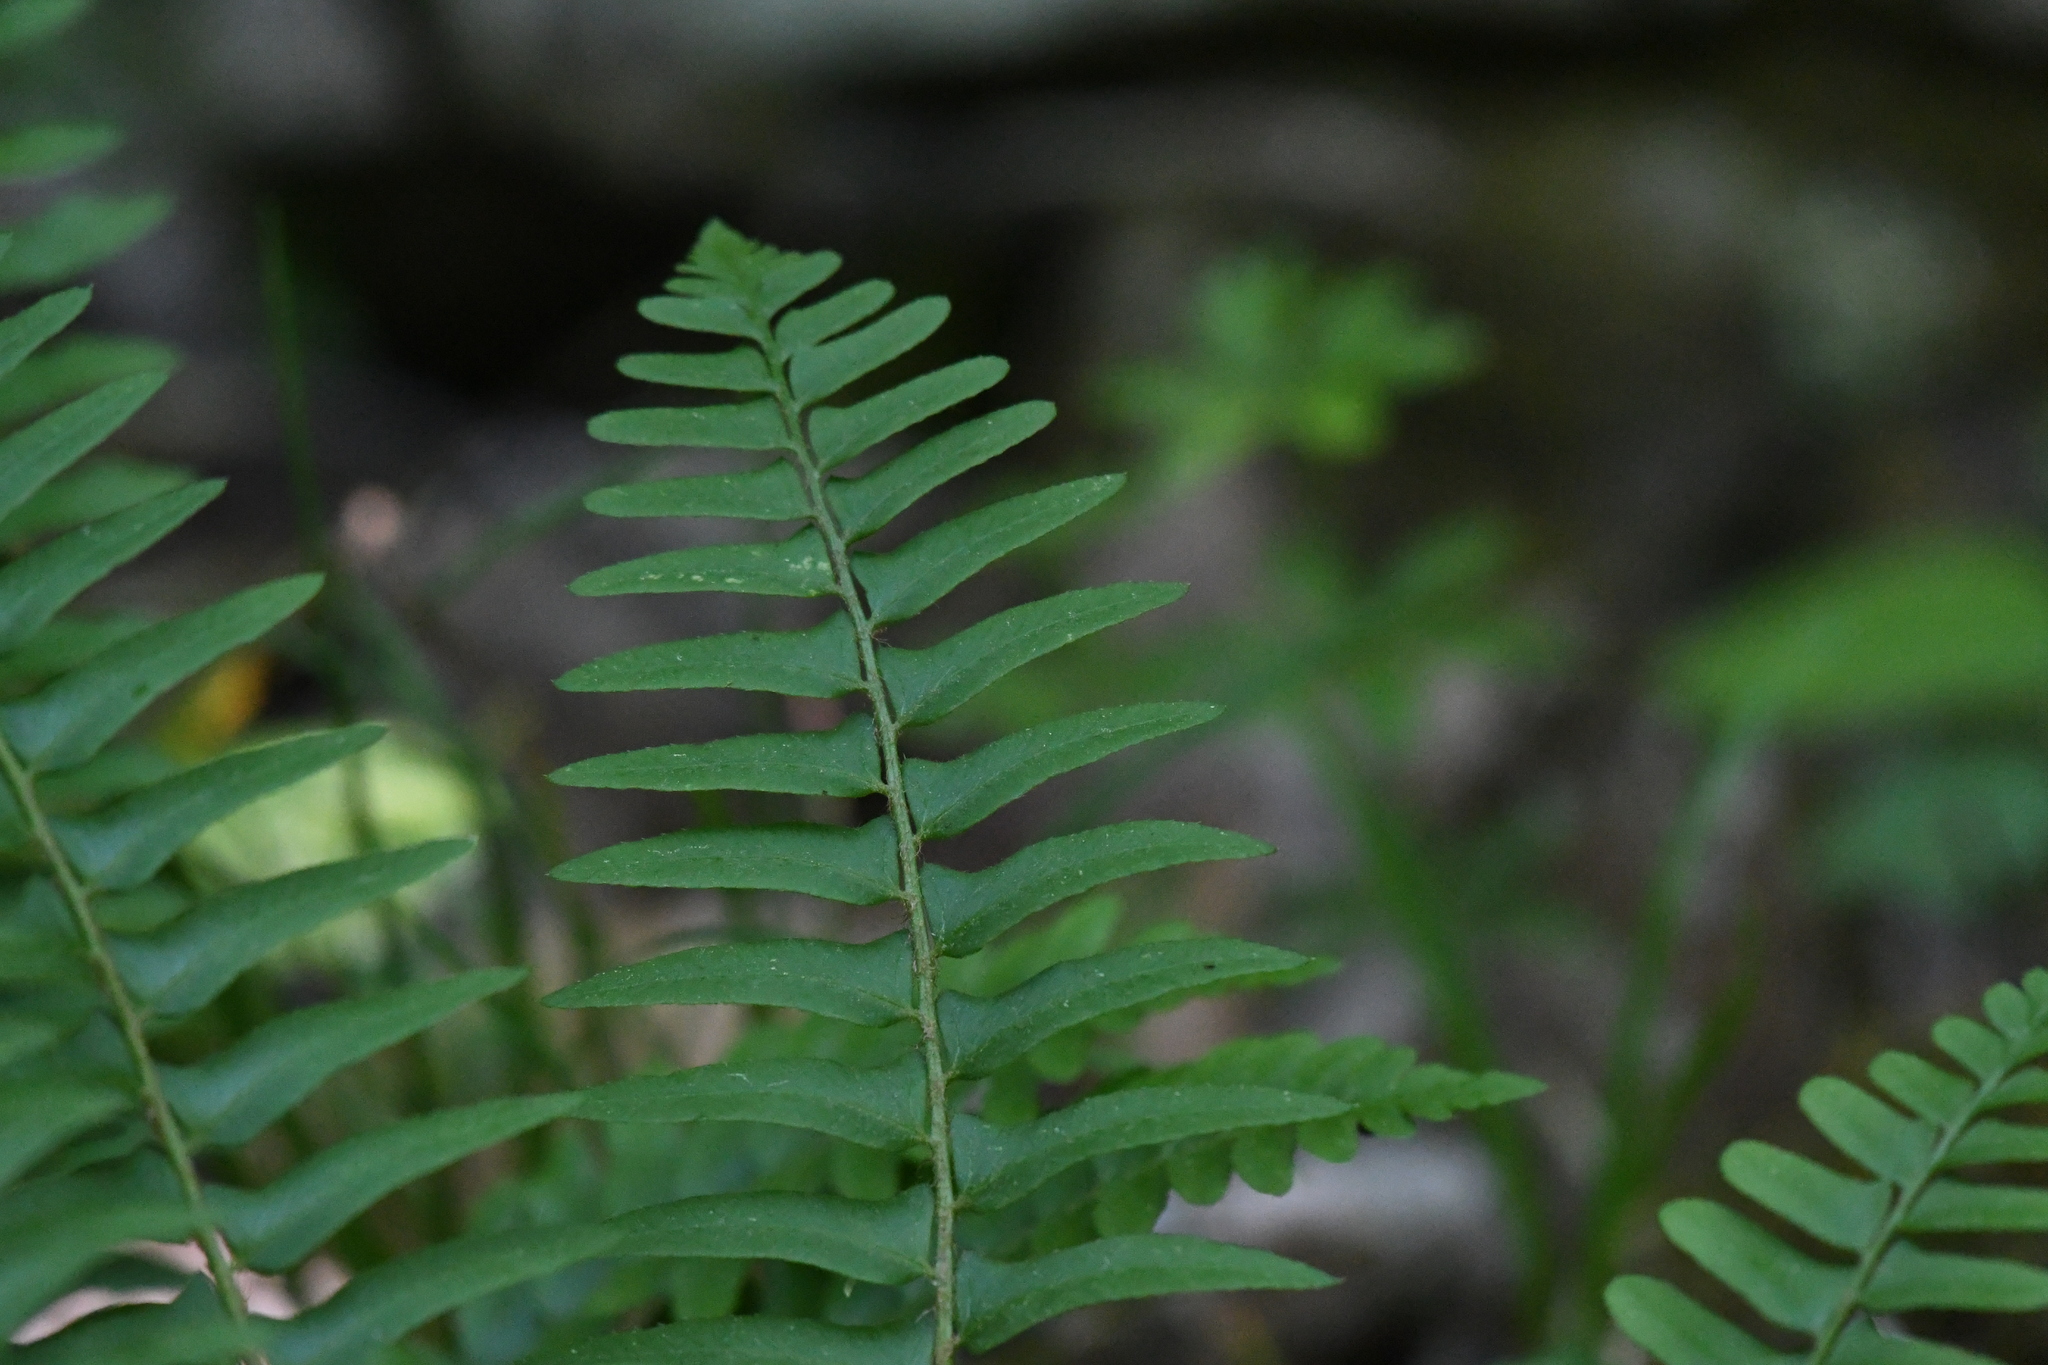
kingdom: Plantae
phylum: Tracheophyta
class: Polypodiopsida
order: Polypodiales
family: Dryopteridaceae
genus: Polystichum
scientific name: Polystichum acrostichoides
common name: Christmas fern
